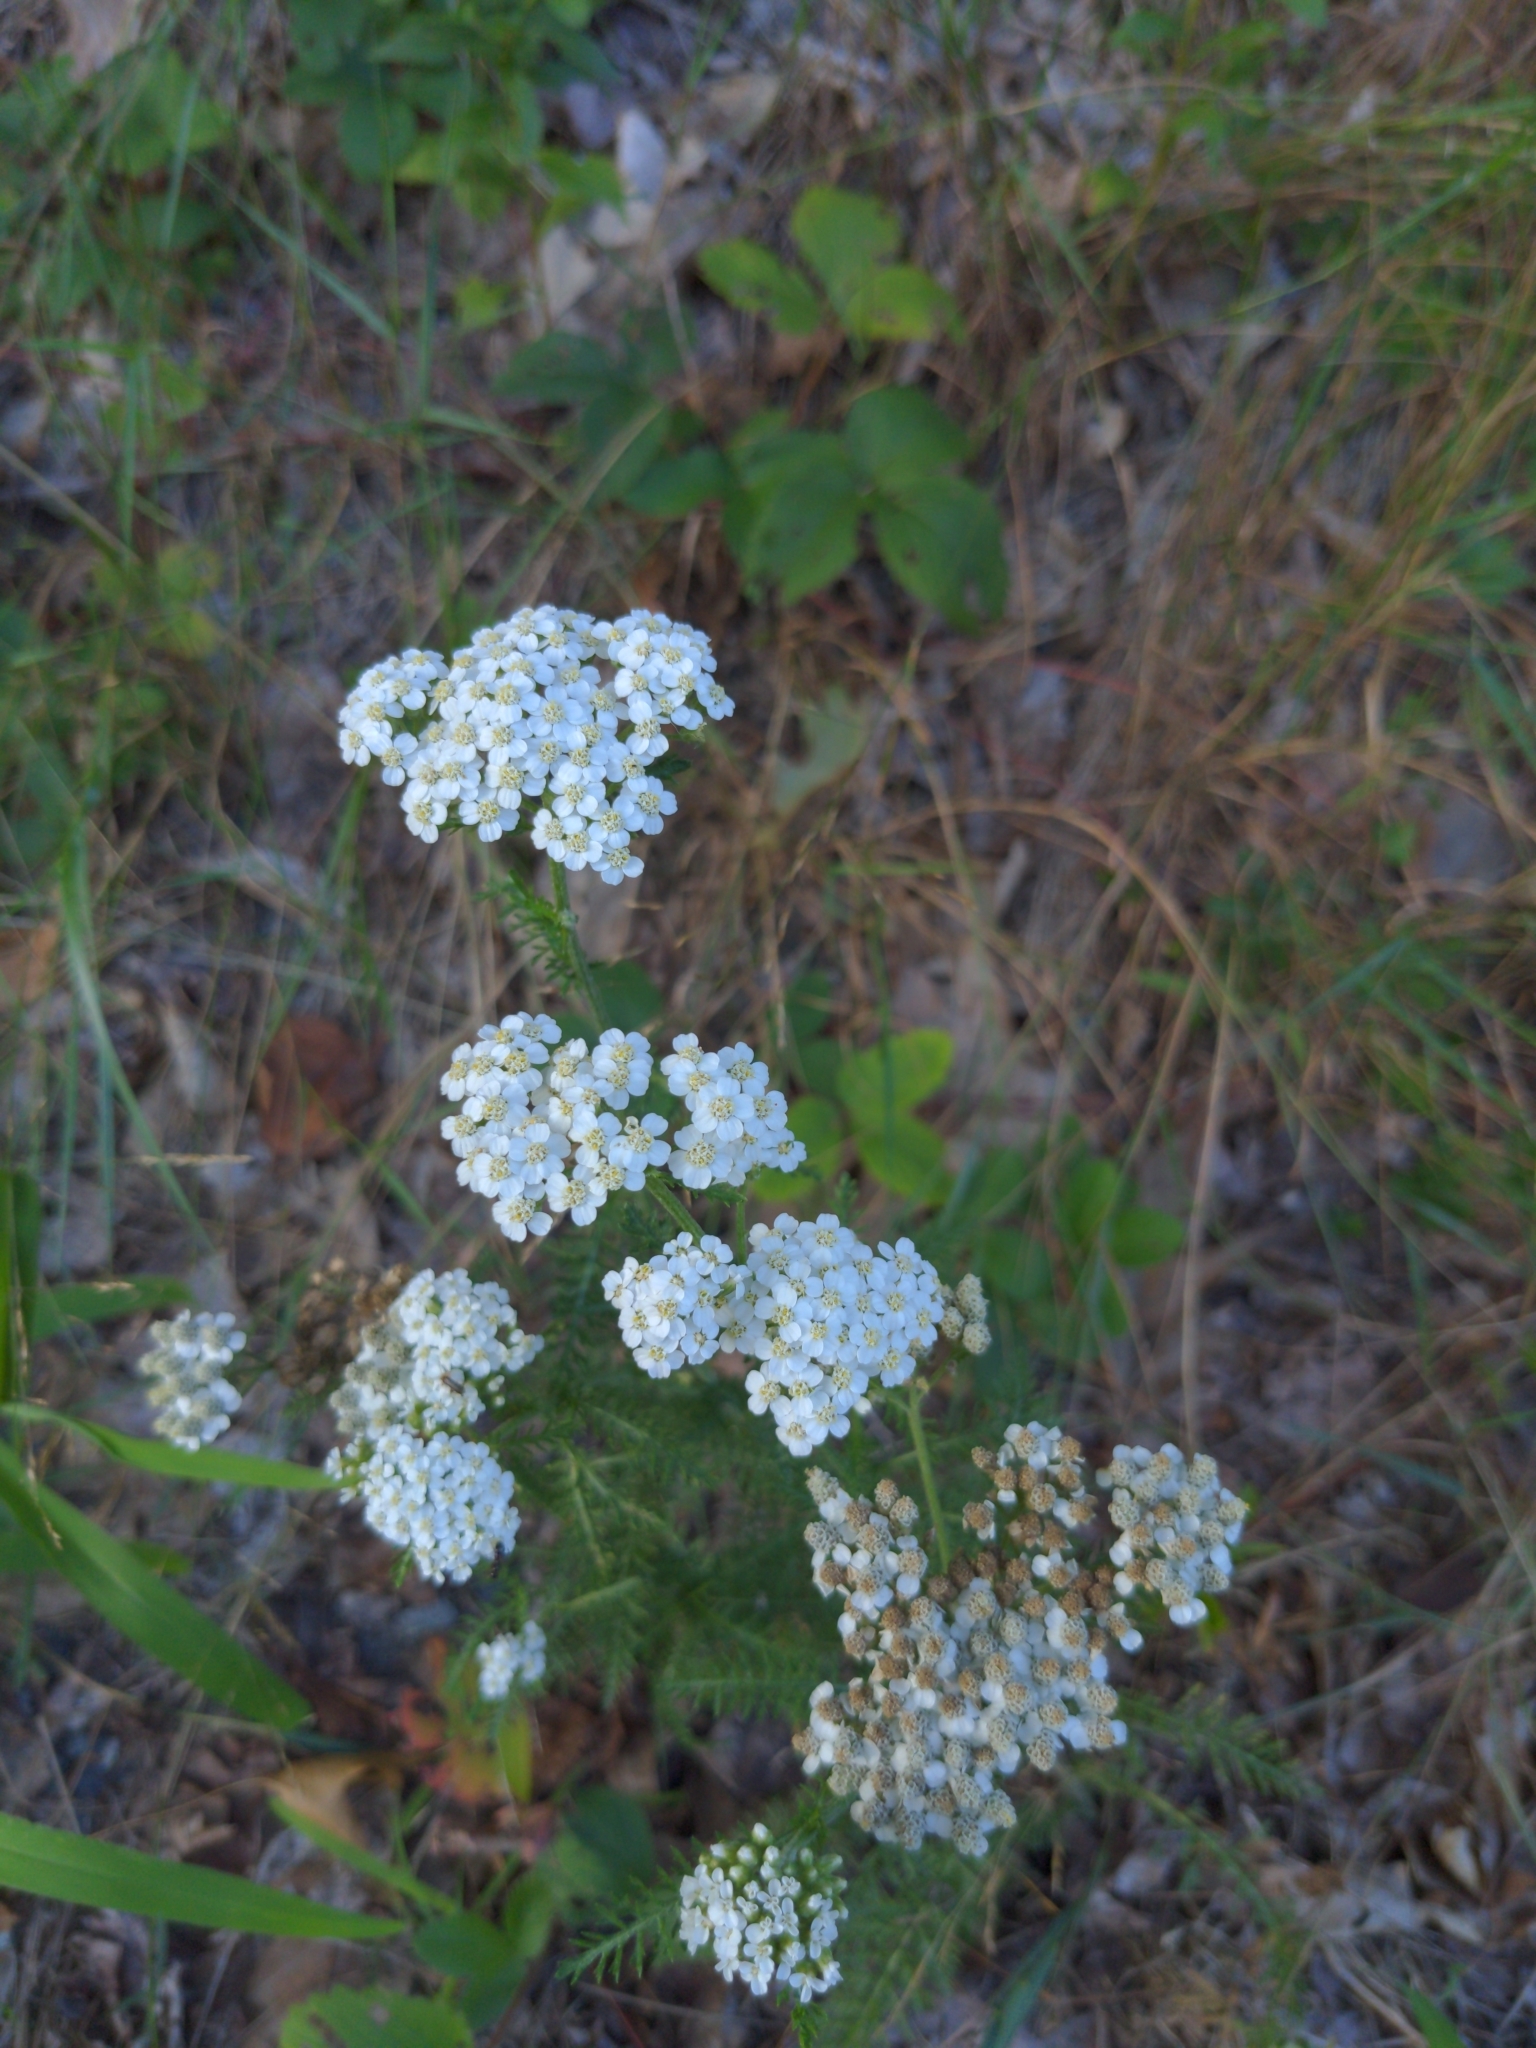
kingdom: Plantae
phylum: Tracheophyta
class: Magnoliopsida
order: Asterales
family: Asteraceae
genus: Achillea
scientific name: Achillea millefolium
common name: Yarrow
